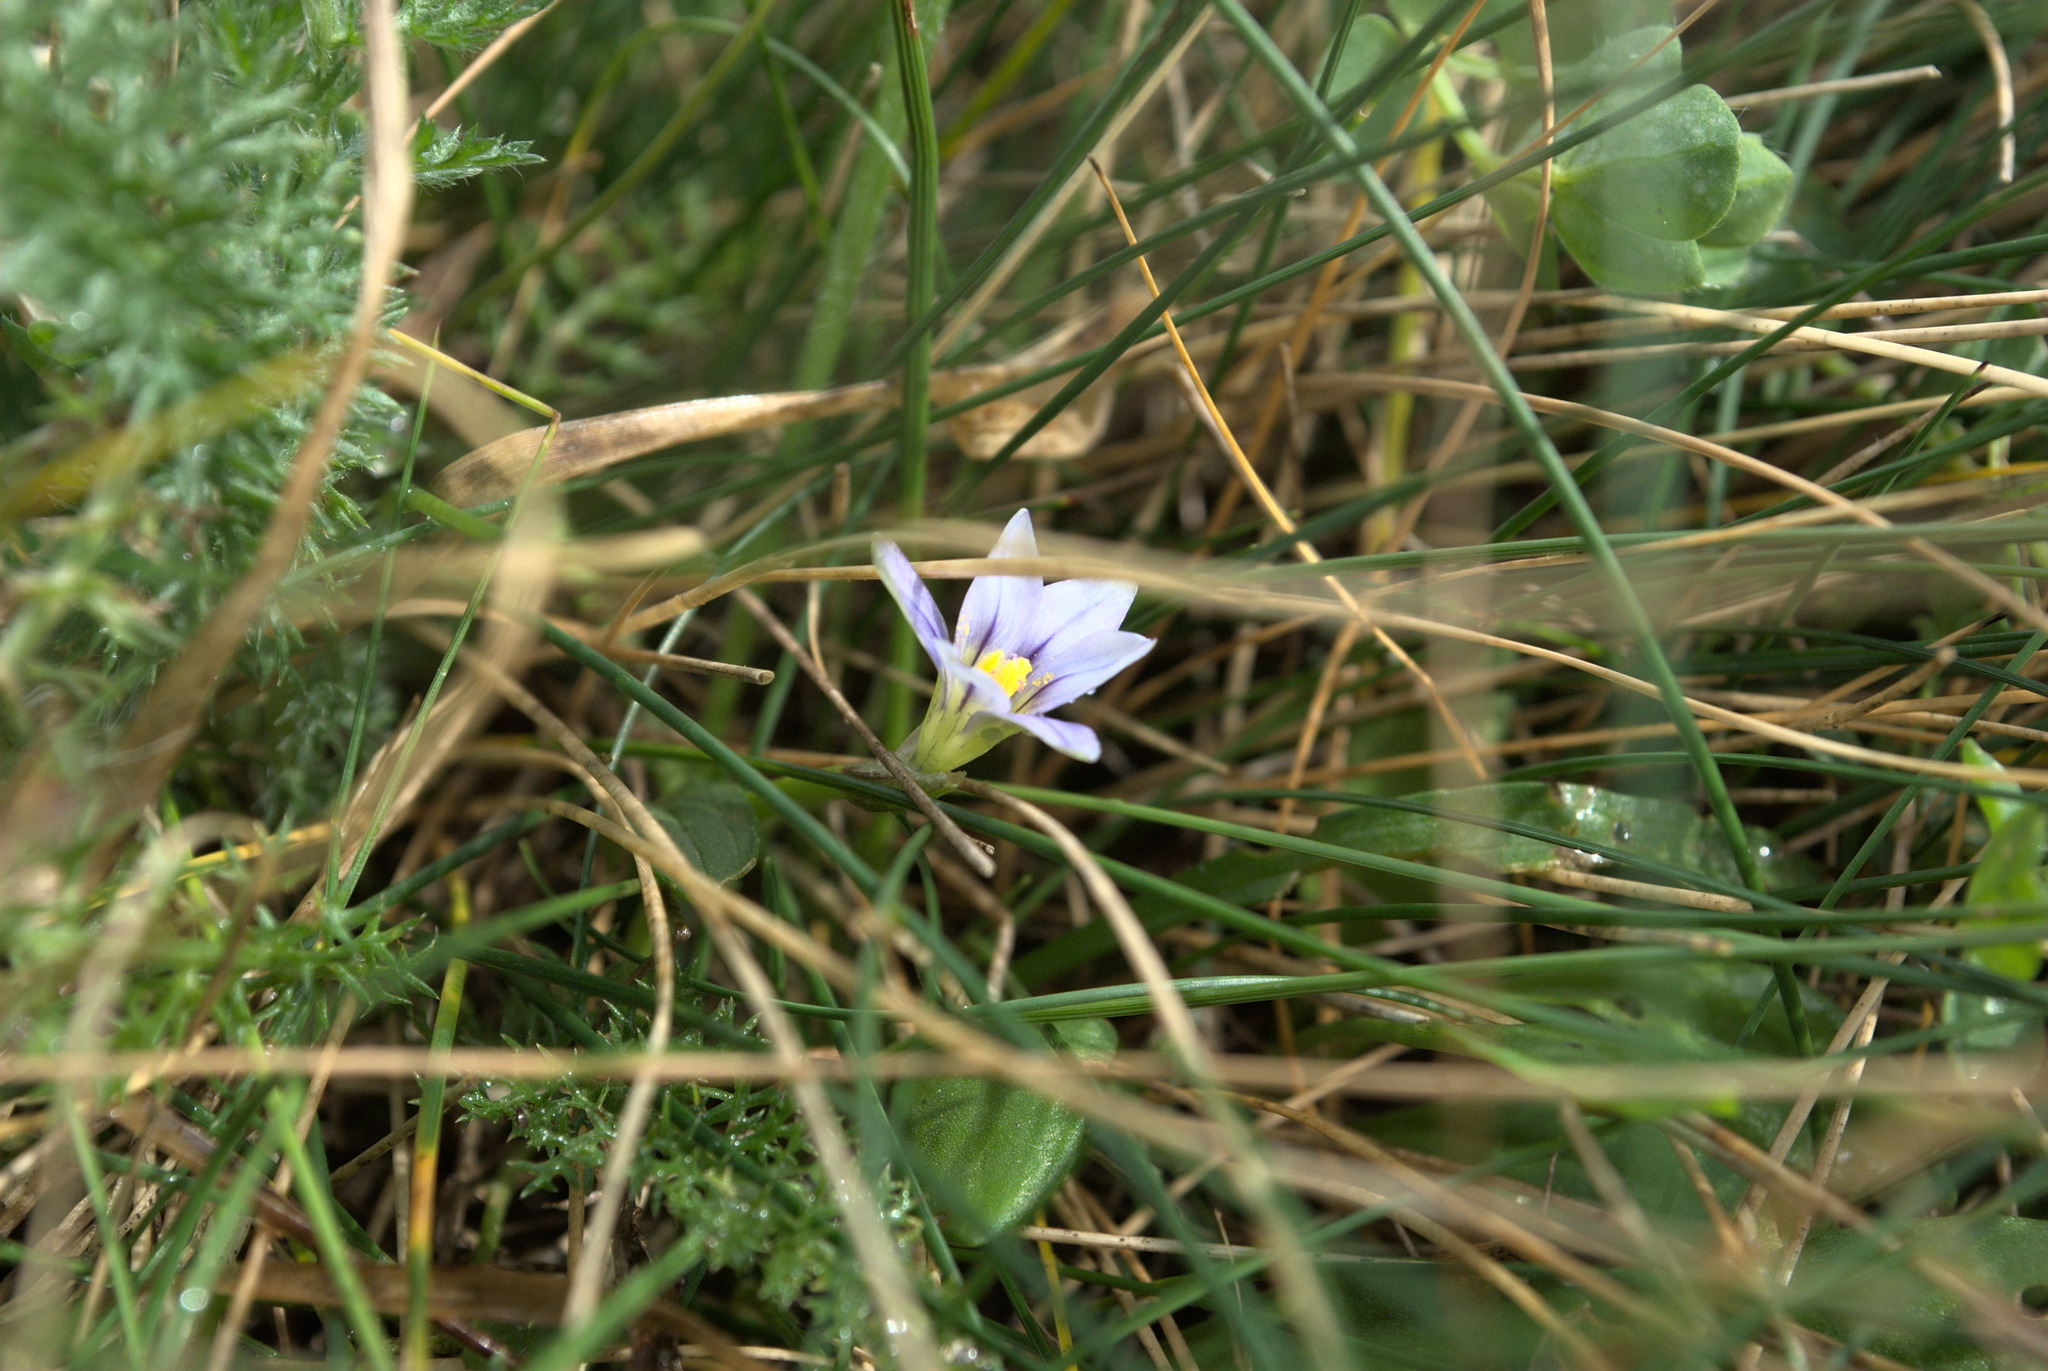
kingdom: Plantae
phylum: Tracheophyta
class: Liliopsida
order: Asparagales
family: Iridaceae
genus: Romulea
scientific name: Romulea columnae
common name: Sand-crocus
